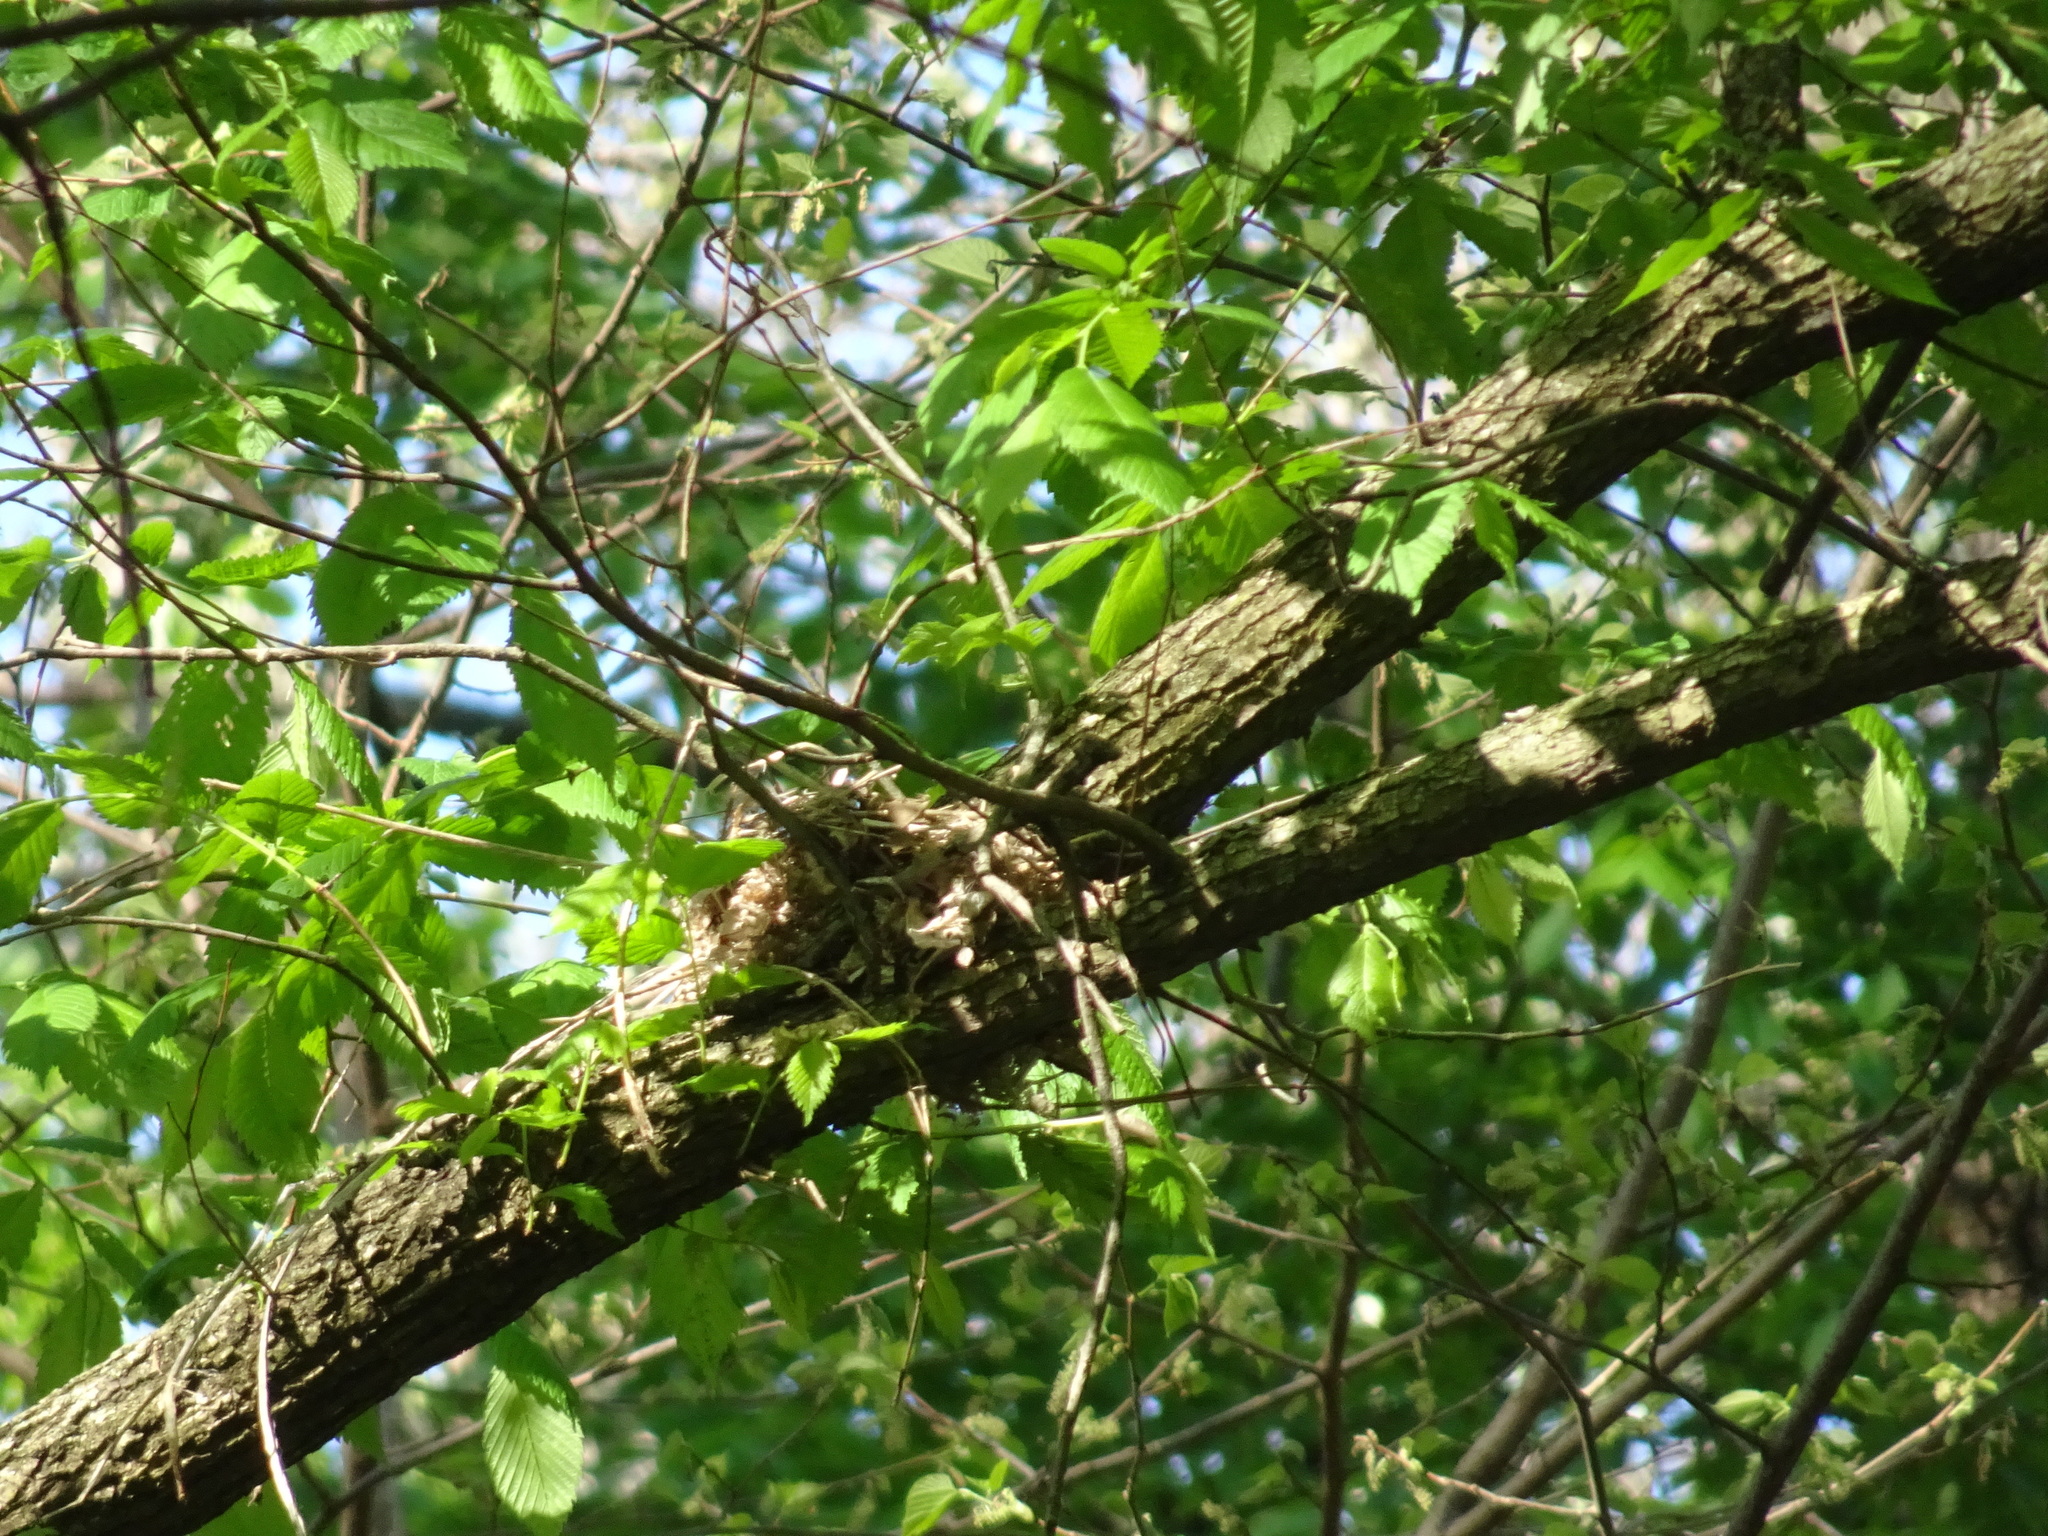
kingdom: Animalia
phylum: Chordata
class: Aves
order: Passeriformes
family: Turdidae
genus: Hylocichla
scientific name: Hylocichla mustelina
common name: Wood thrush
